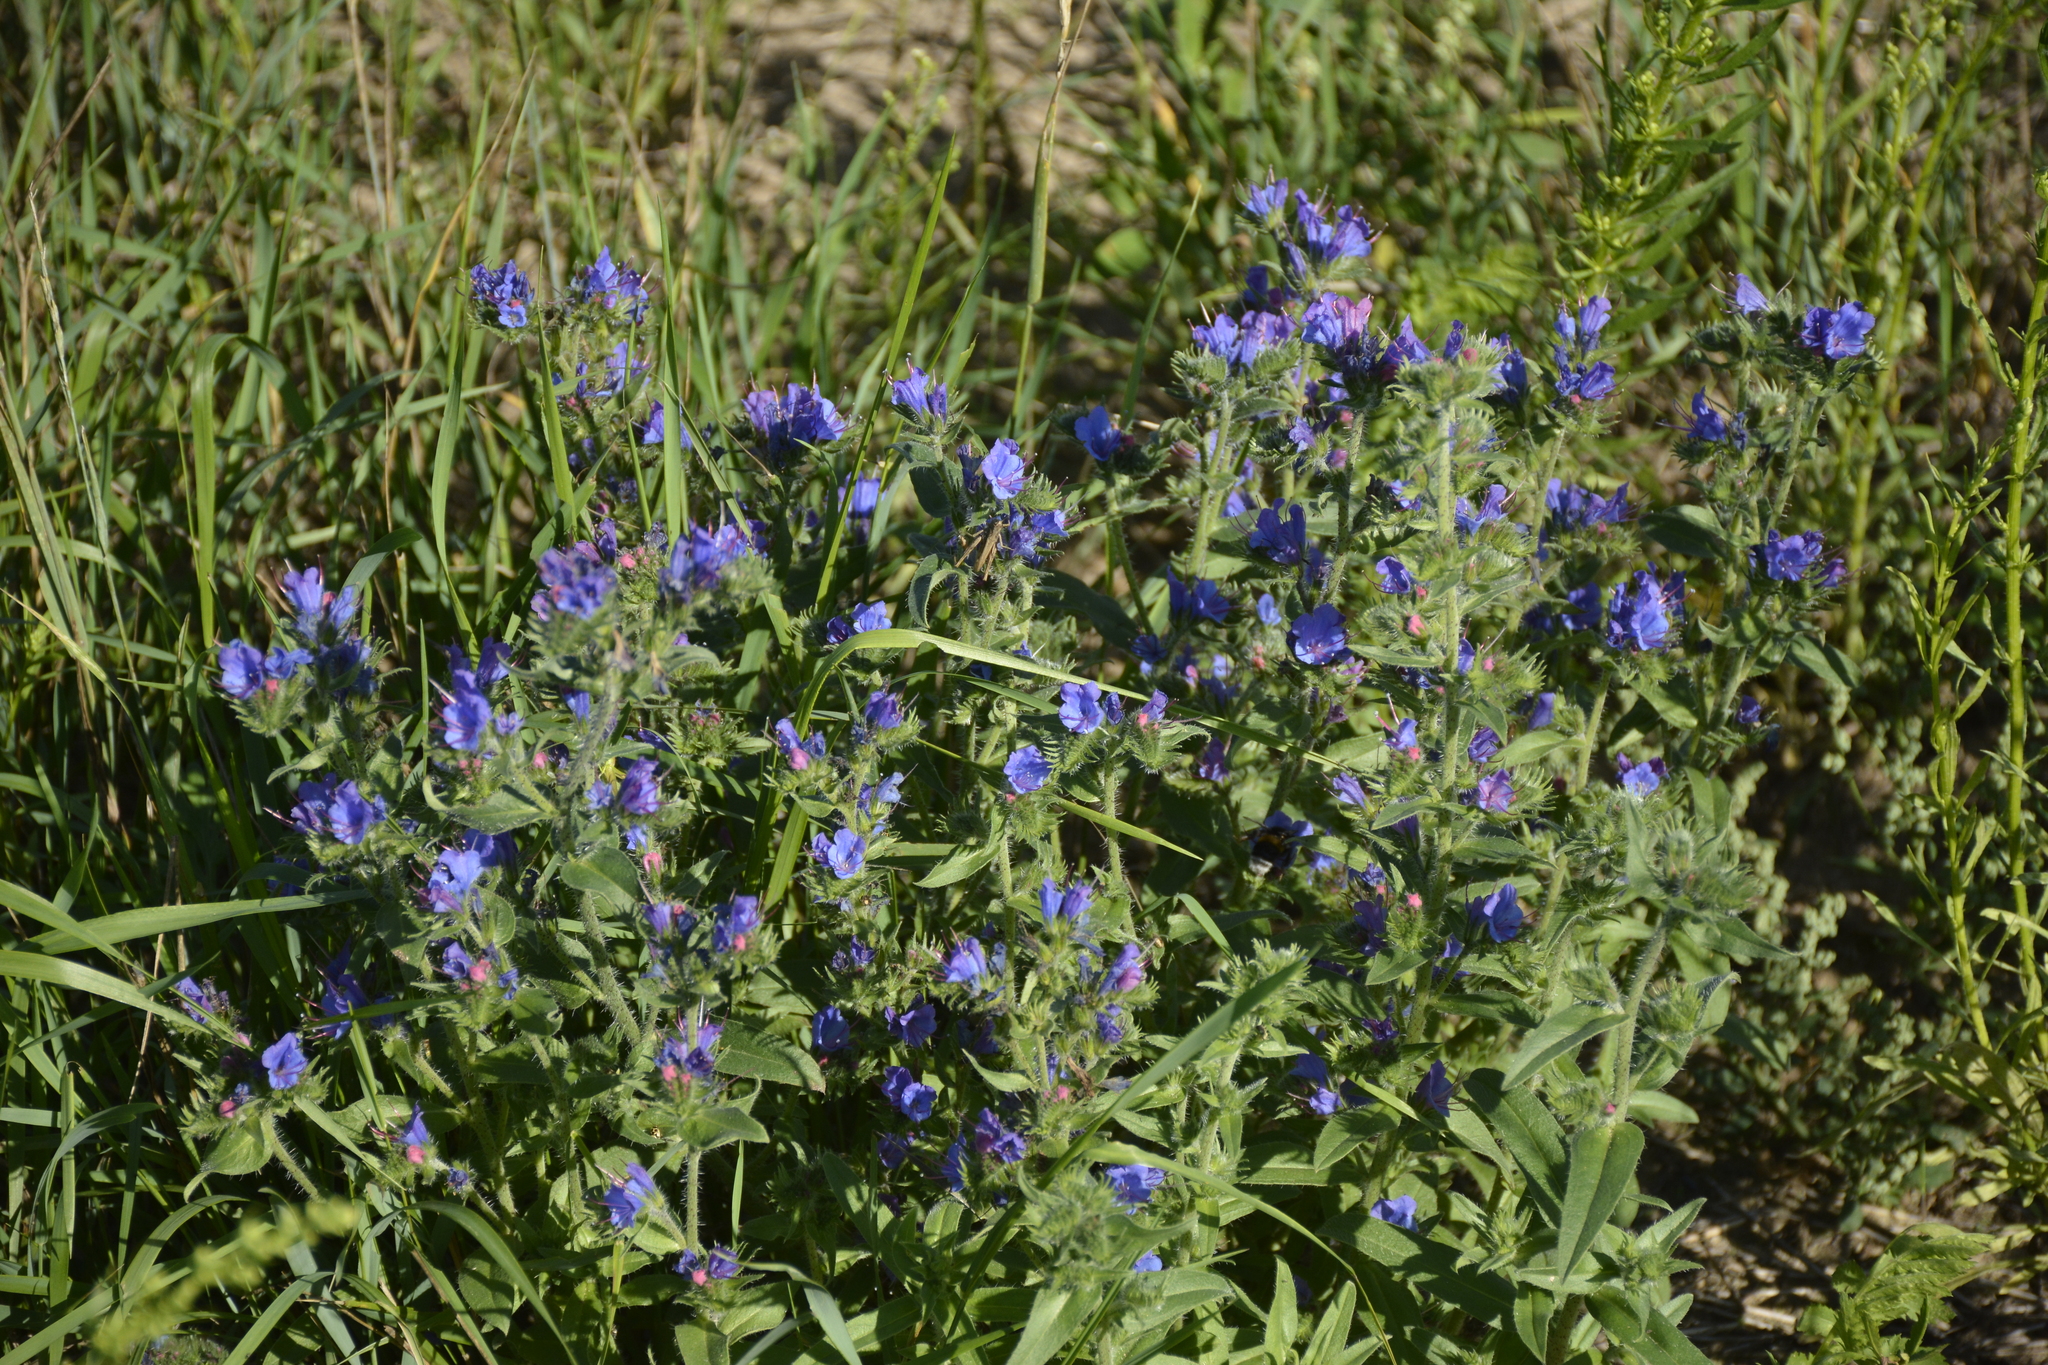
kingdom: Plantae
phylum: Tracheophyta
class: Magnoliopsida
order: Boraginales
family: Boraginaceae
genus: Echium
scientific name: Echium vulgare
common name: Common viper's bugloss
